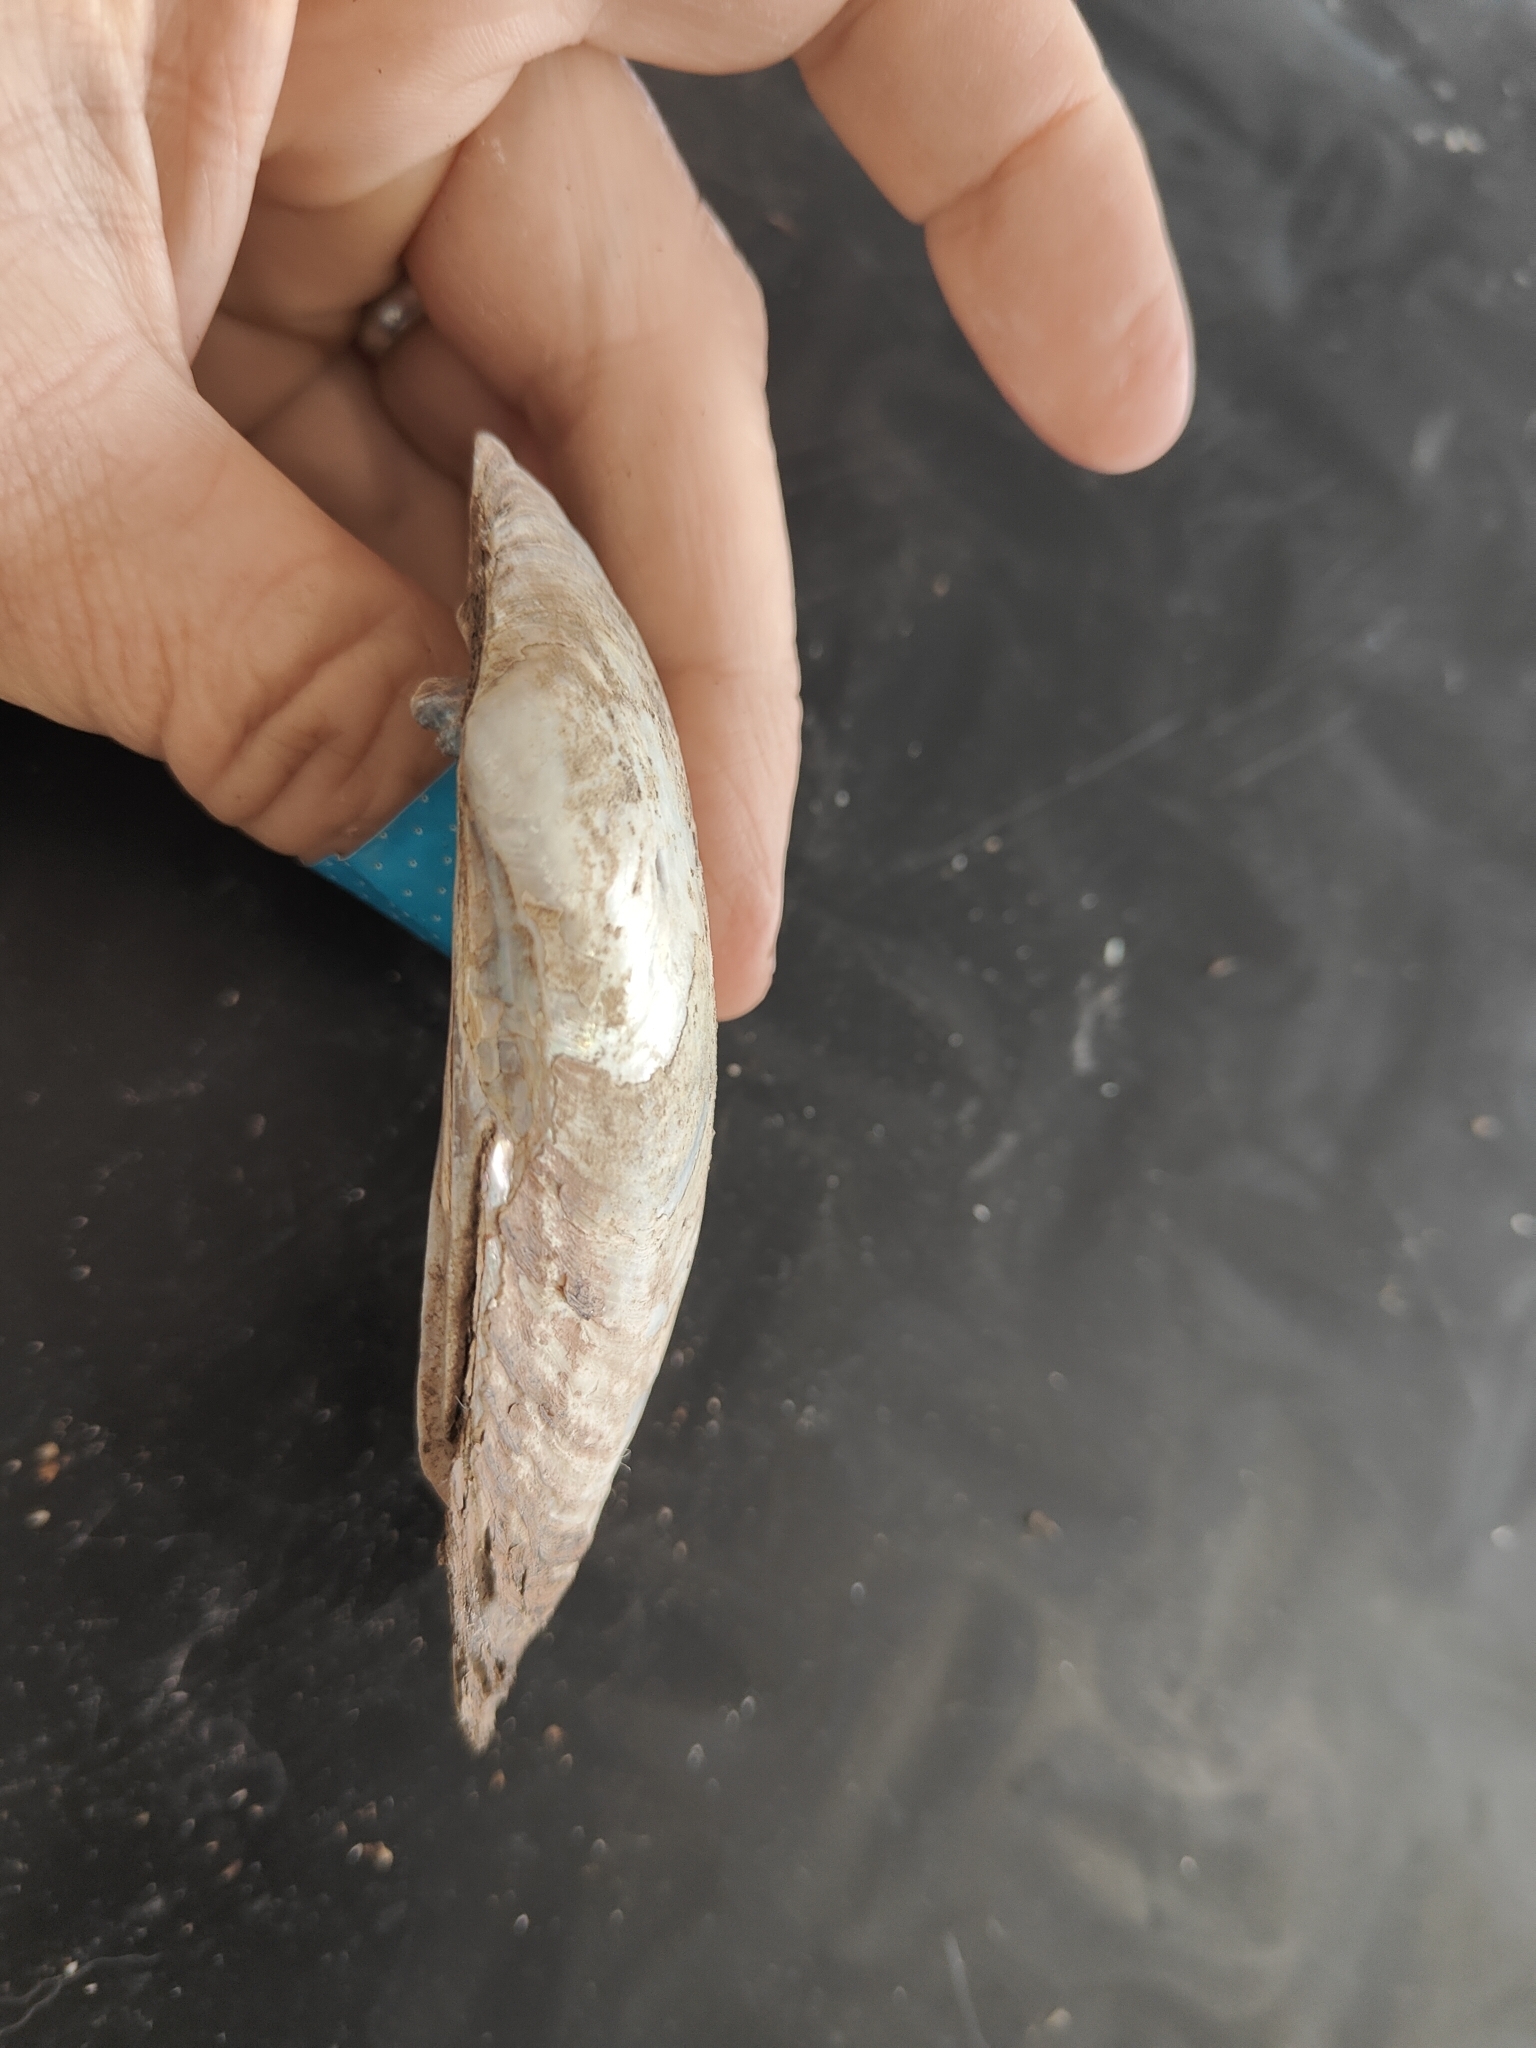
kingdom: Animalia
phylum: Mollusca
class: Bivalvia
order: Unionida
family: Unionidae
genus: Lampsilis
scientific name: Lampsilis siliquoidea
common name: Fatmucket
